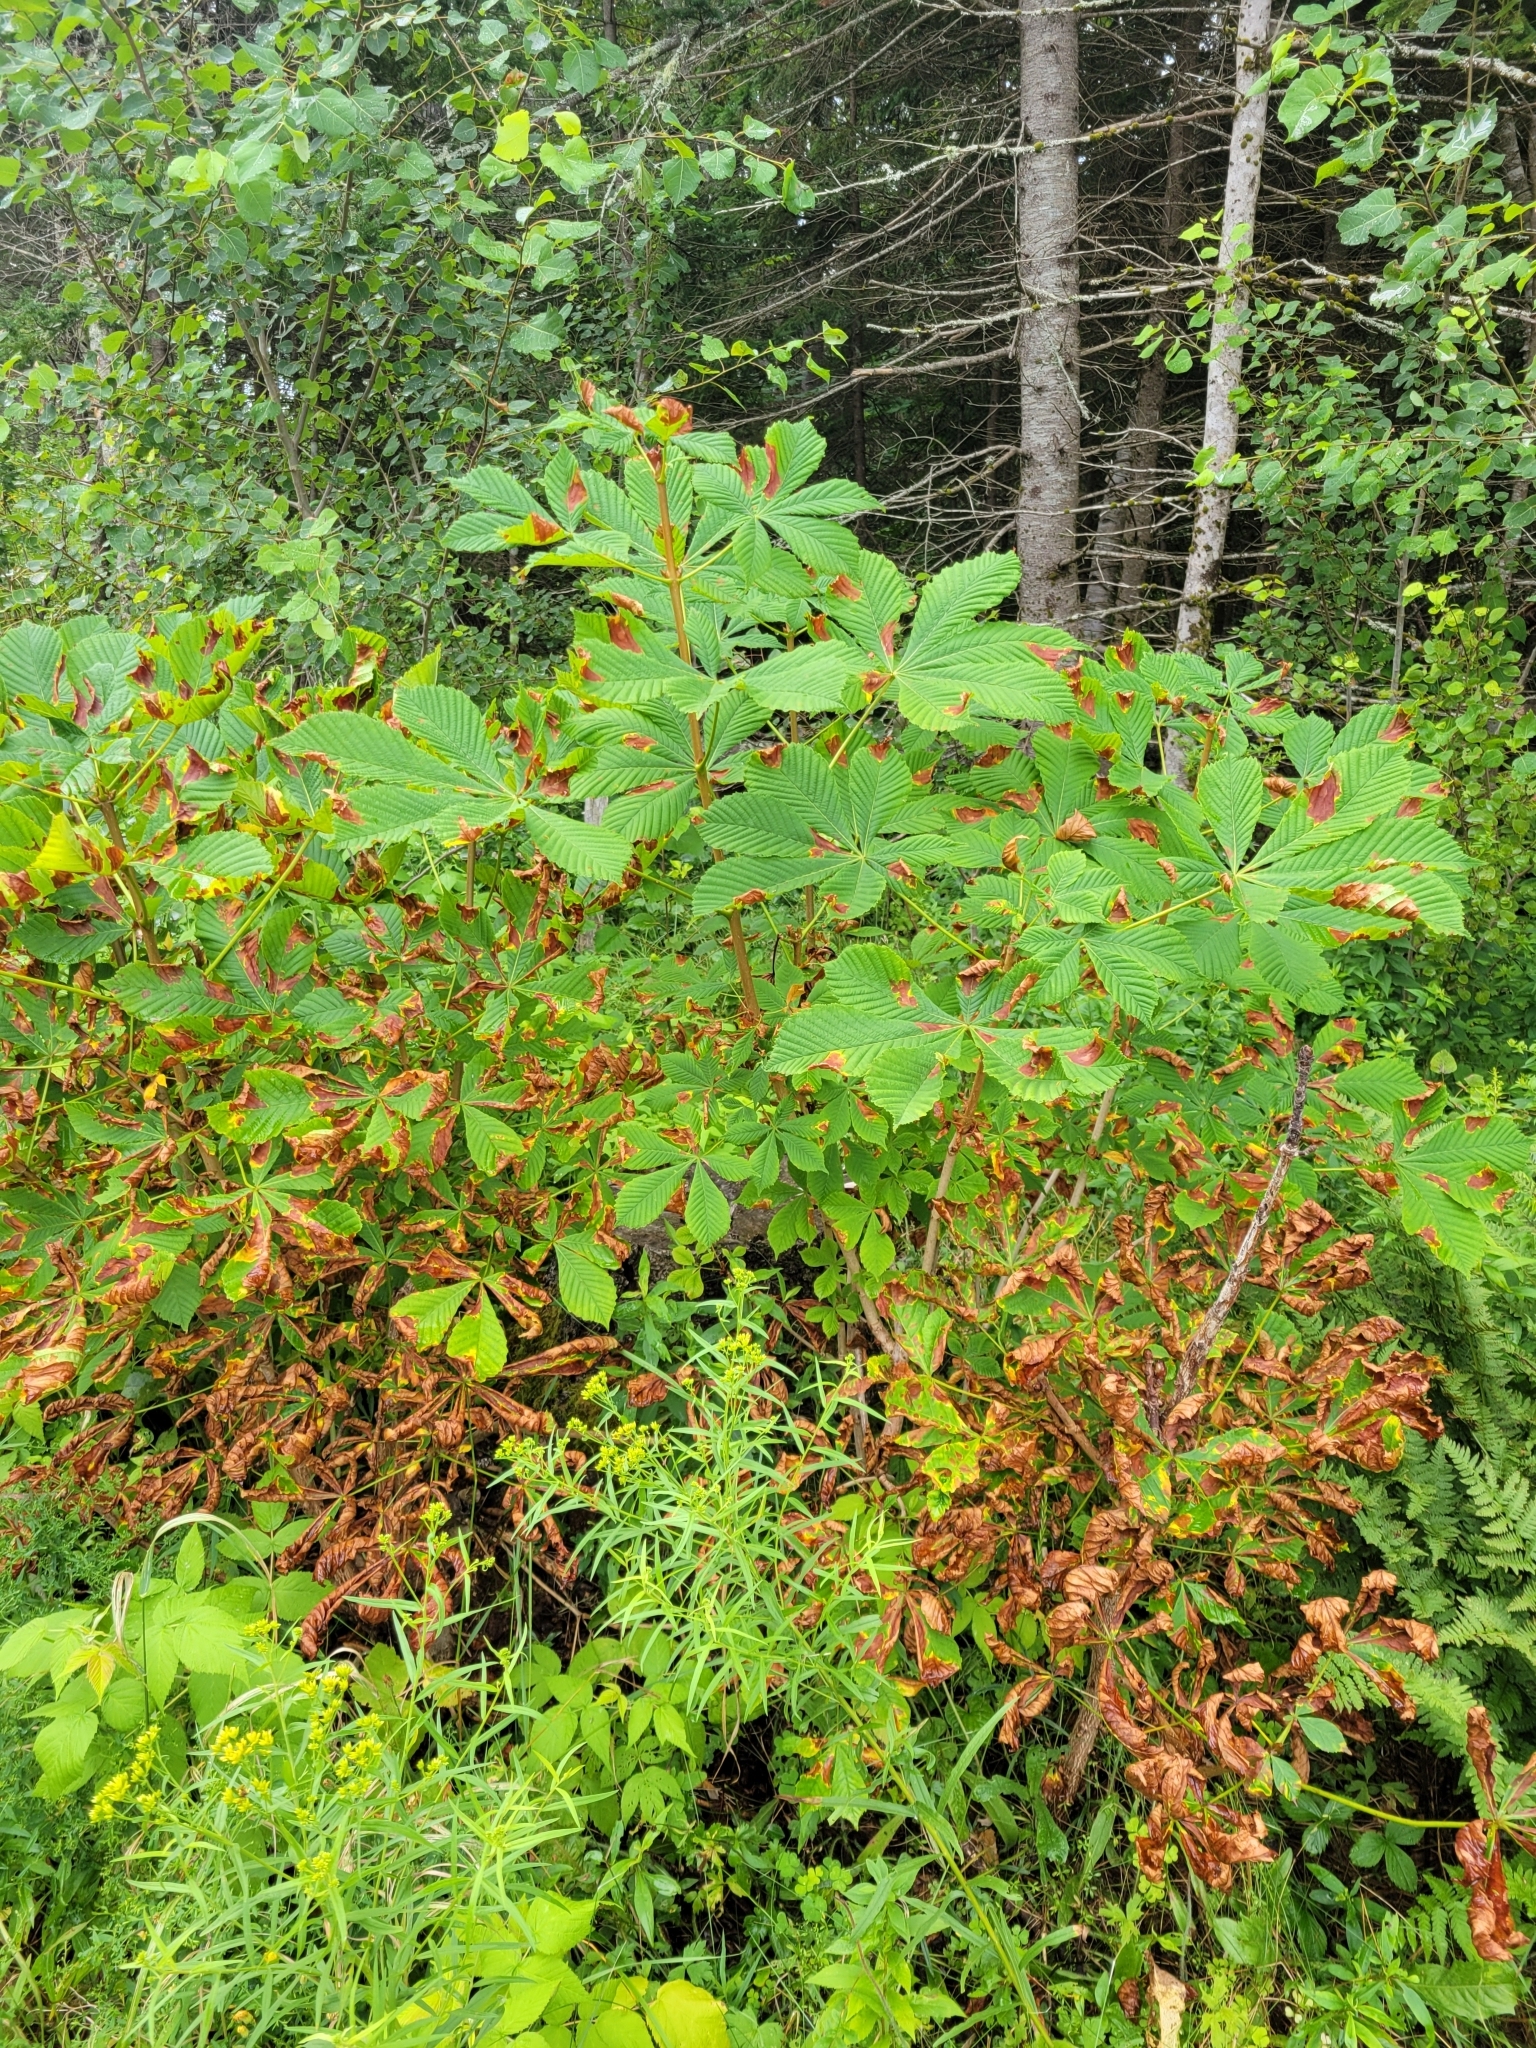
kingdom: Plantae
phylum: Tracheophyta
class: Magnoliopsida
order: Sapindales
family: Sapindaceae
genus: Aesculus
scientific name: Aesculus hippocastanum
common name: Horse-chestnut
